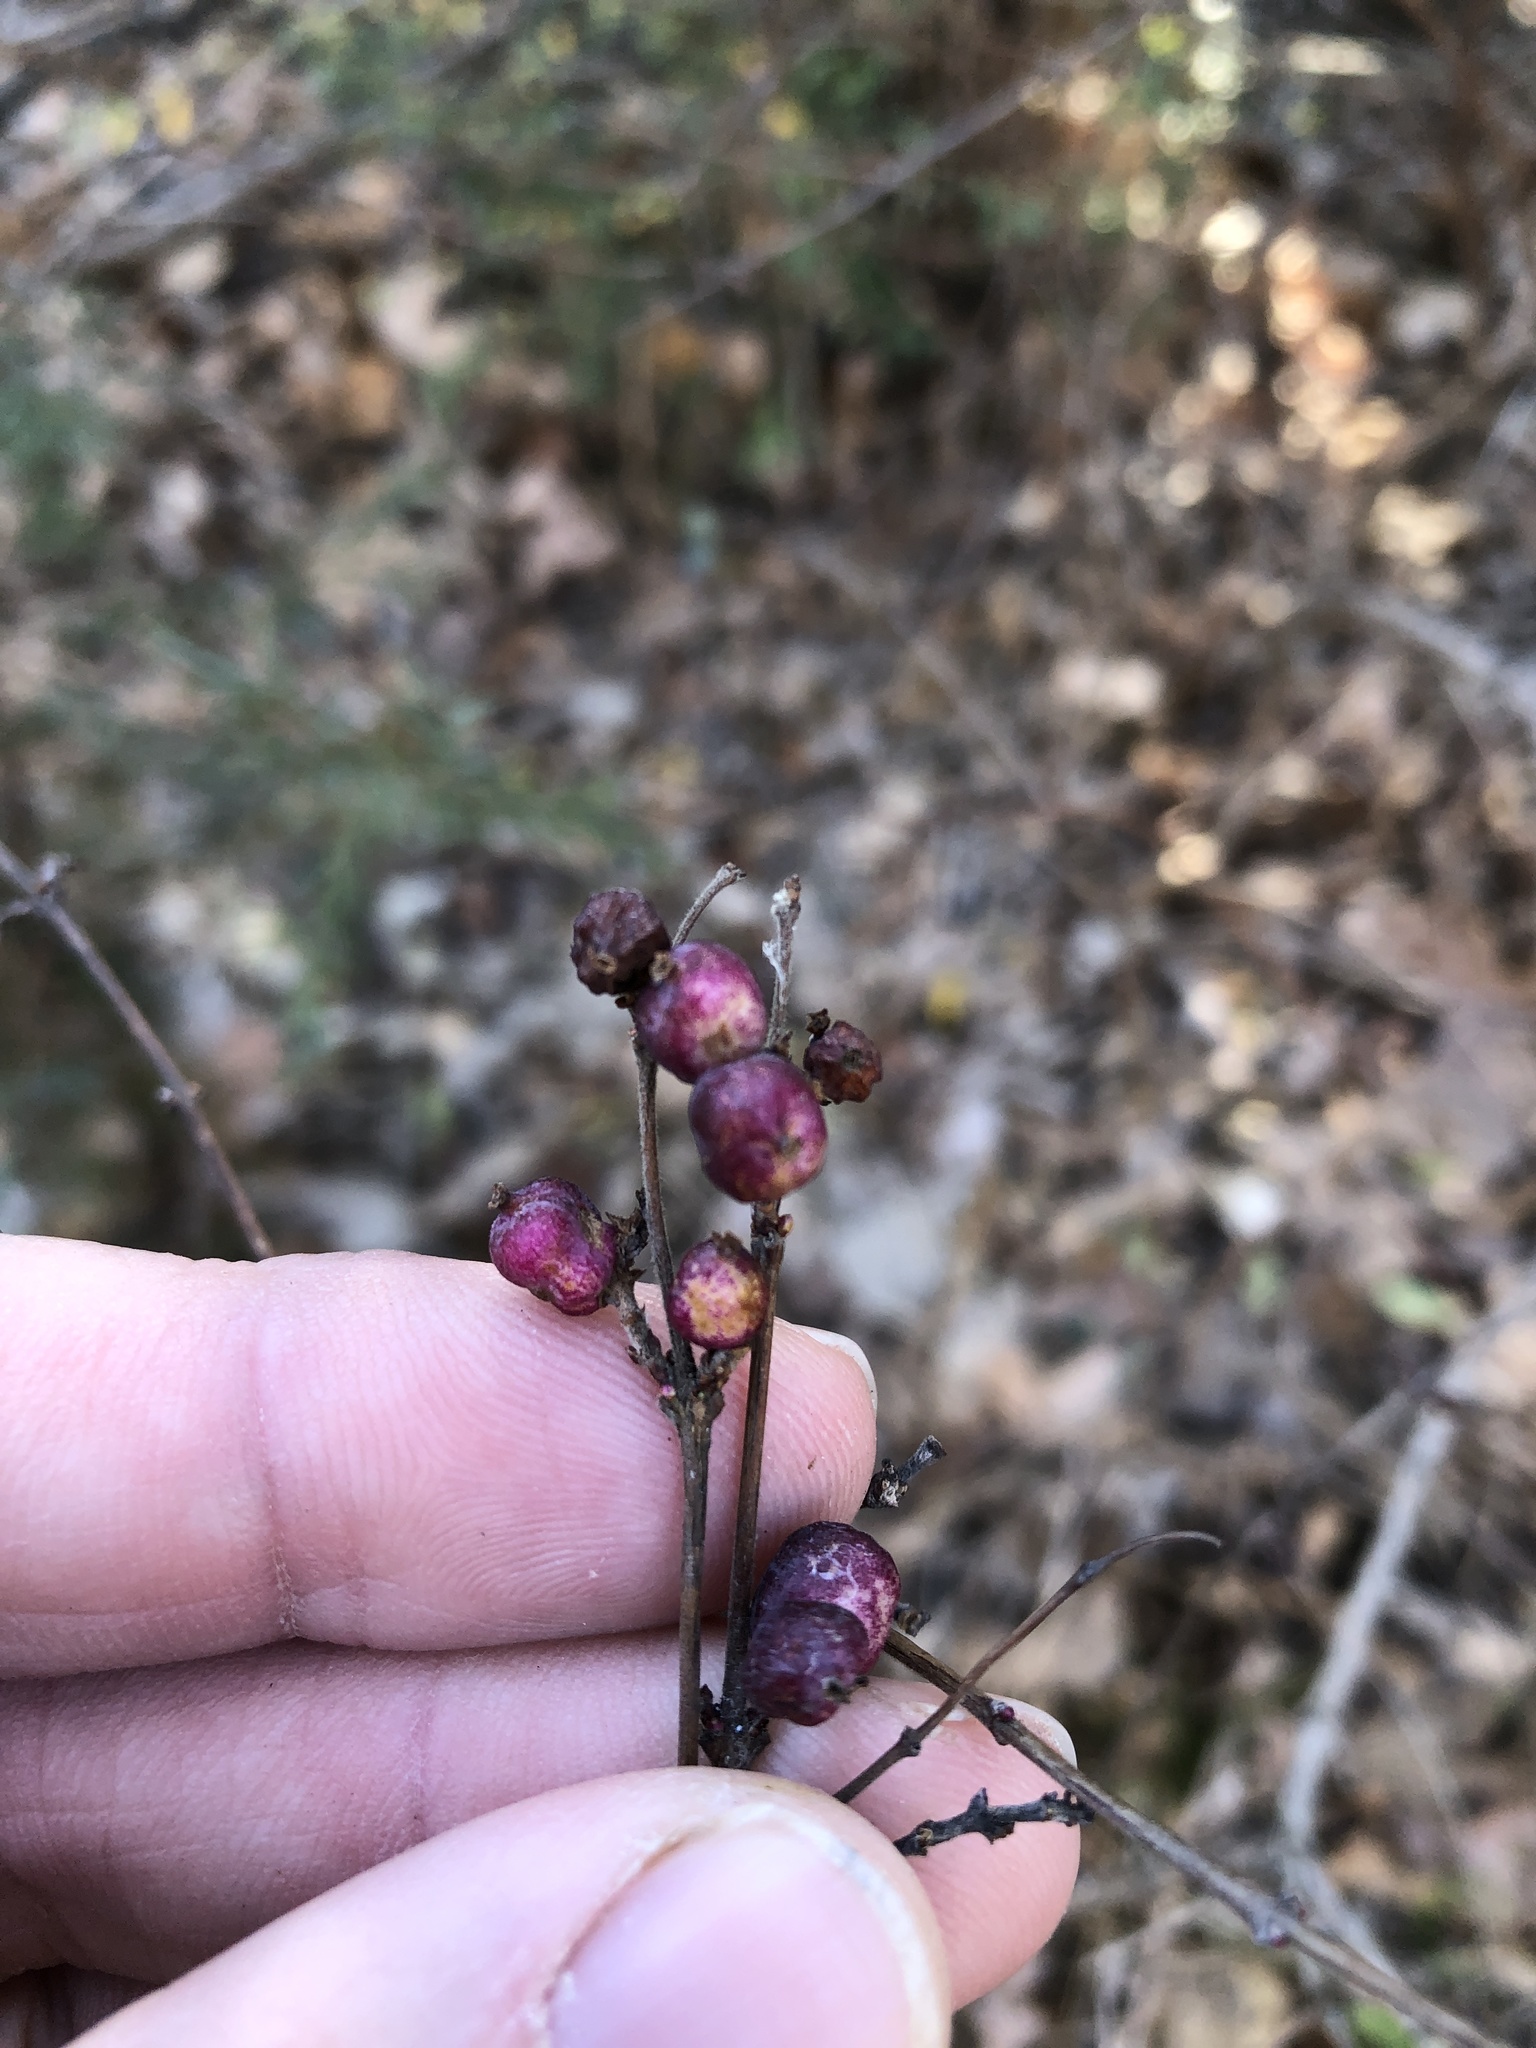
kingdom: Plantae
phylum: Tracheophyta
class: Magnoliopsida
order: Dipsacales
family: Caprifoliaceae
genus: Symphoricarpos
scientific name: Symphoricarpos orbiculatus
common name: Coralberry
